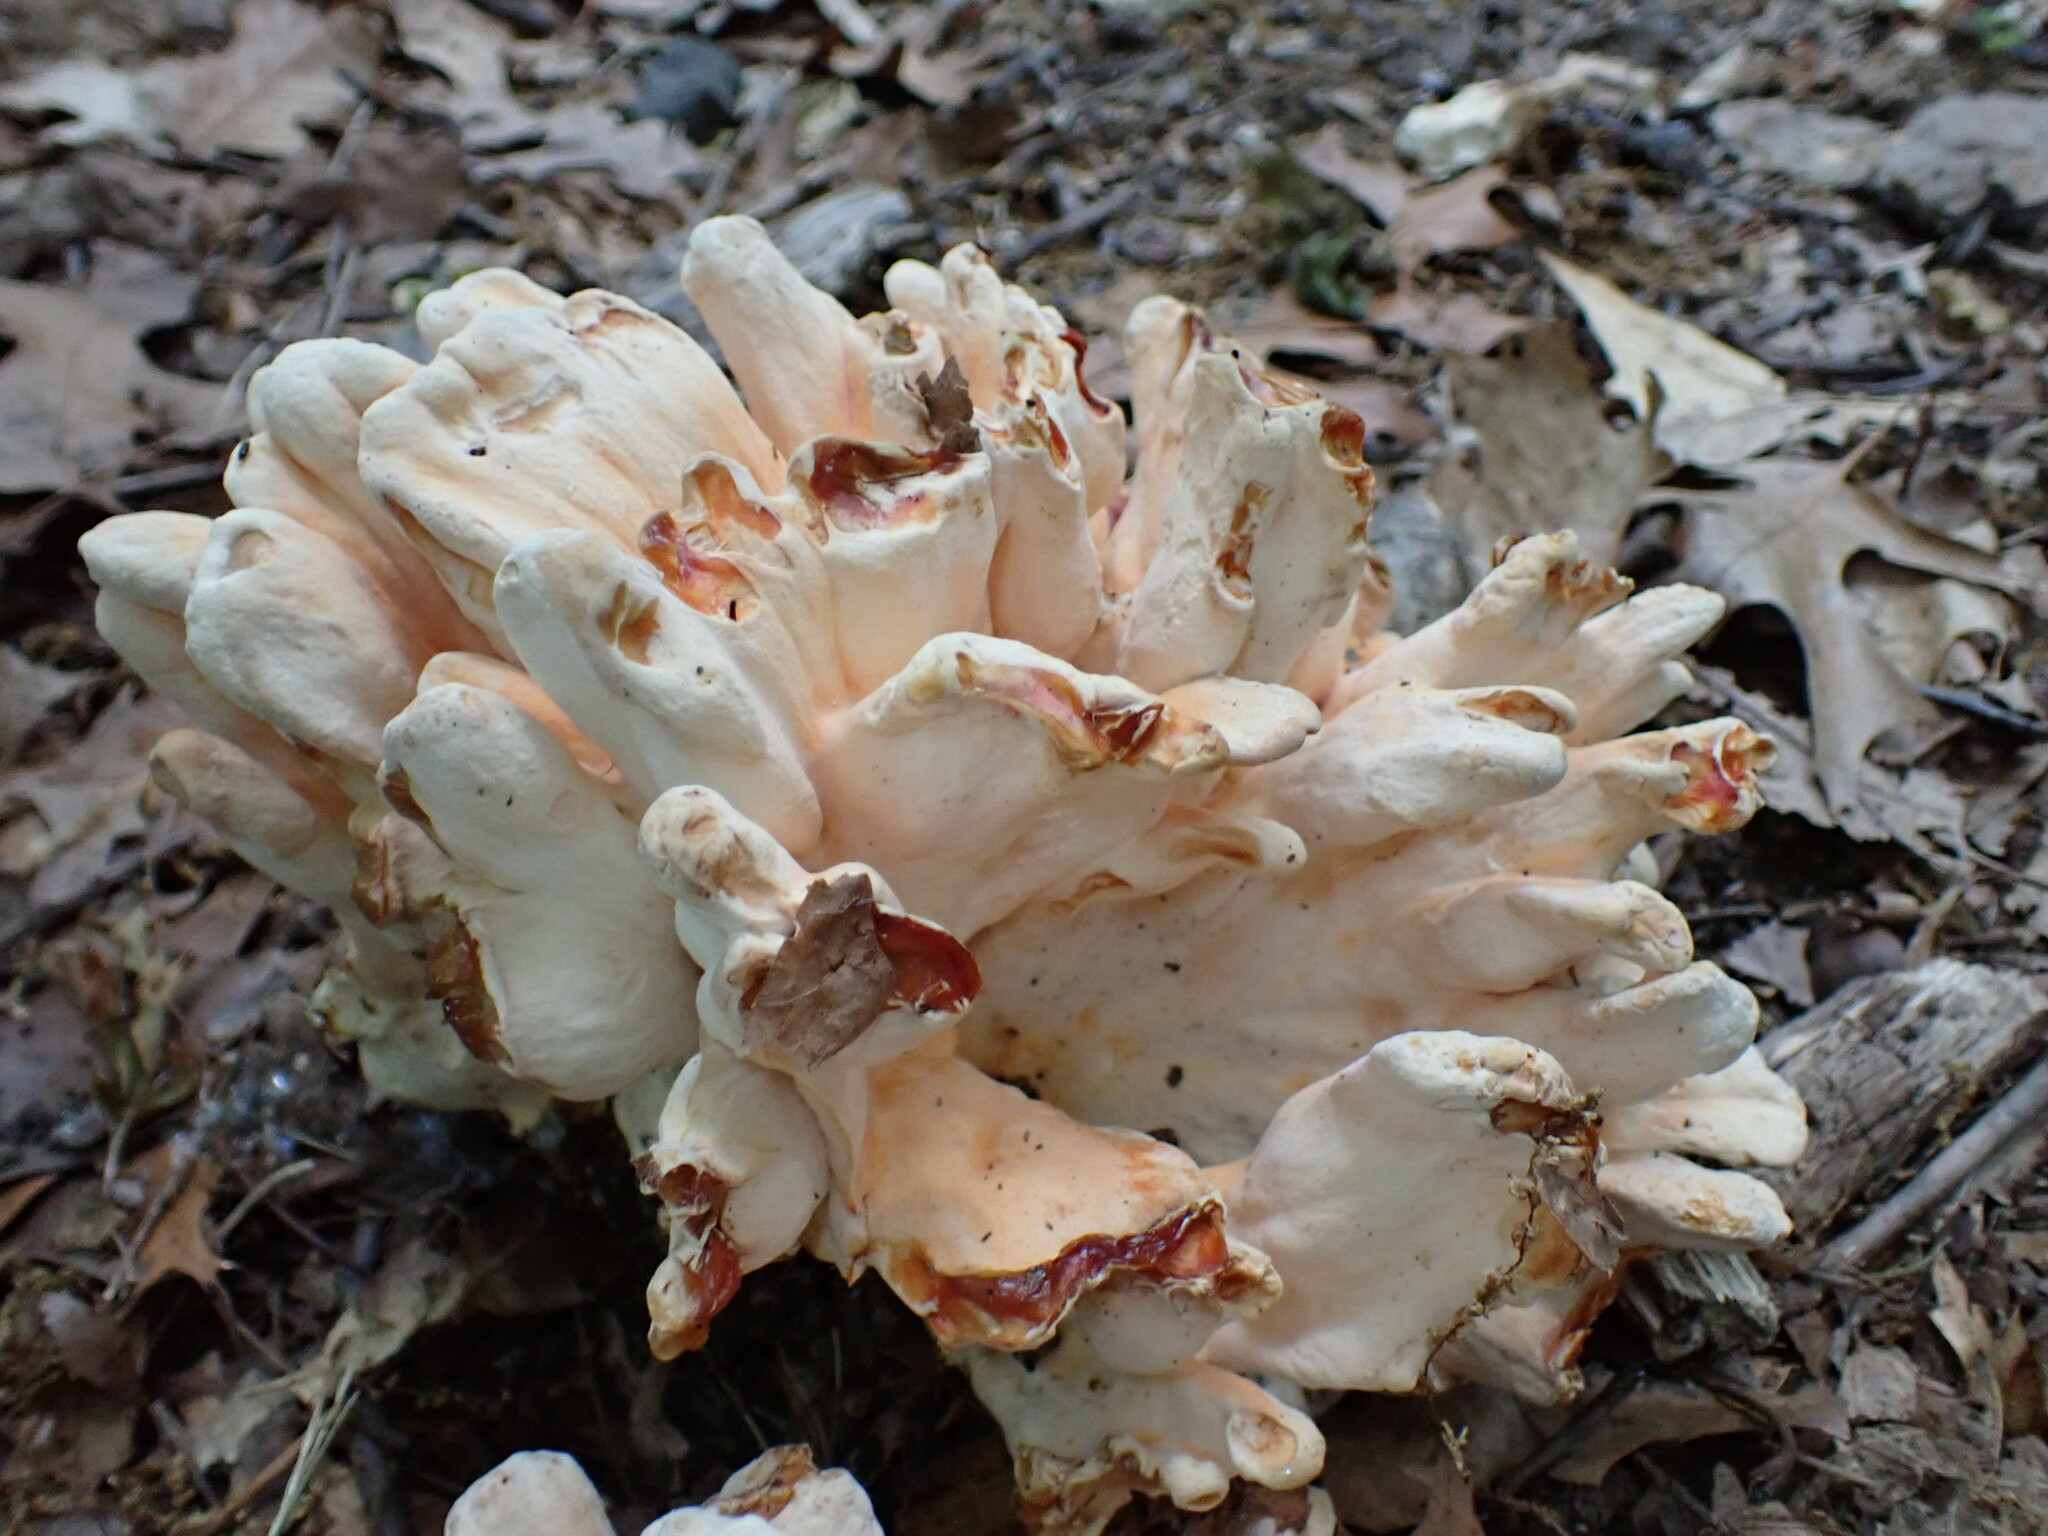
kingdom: Fungi
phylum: Basidiomycota
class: Agaricomycetes
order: Polyporales
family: Laetiporaceae
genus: Laetiporus
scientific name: Laetiporus sulphureus
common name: Chicken of the woods
